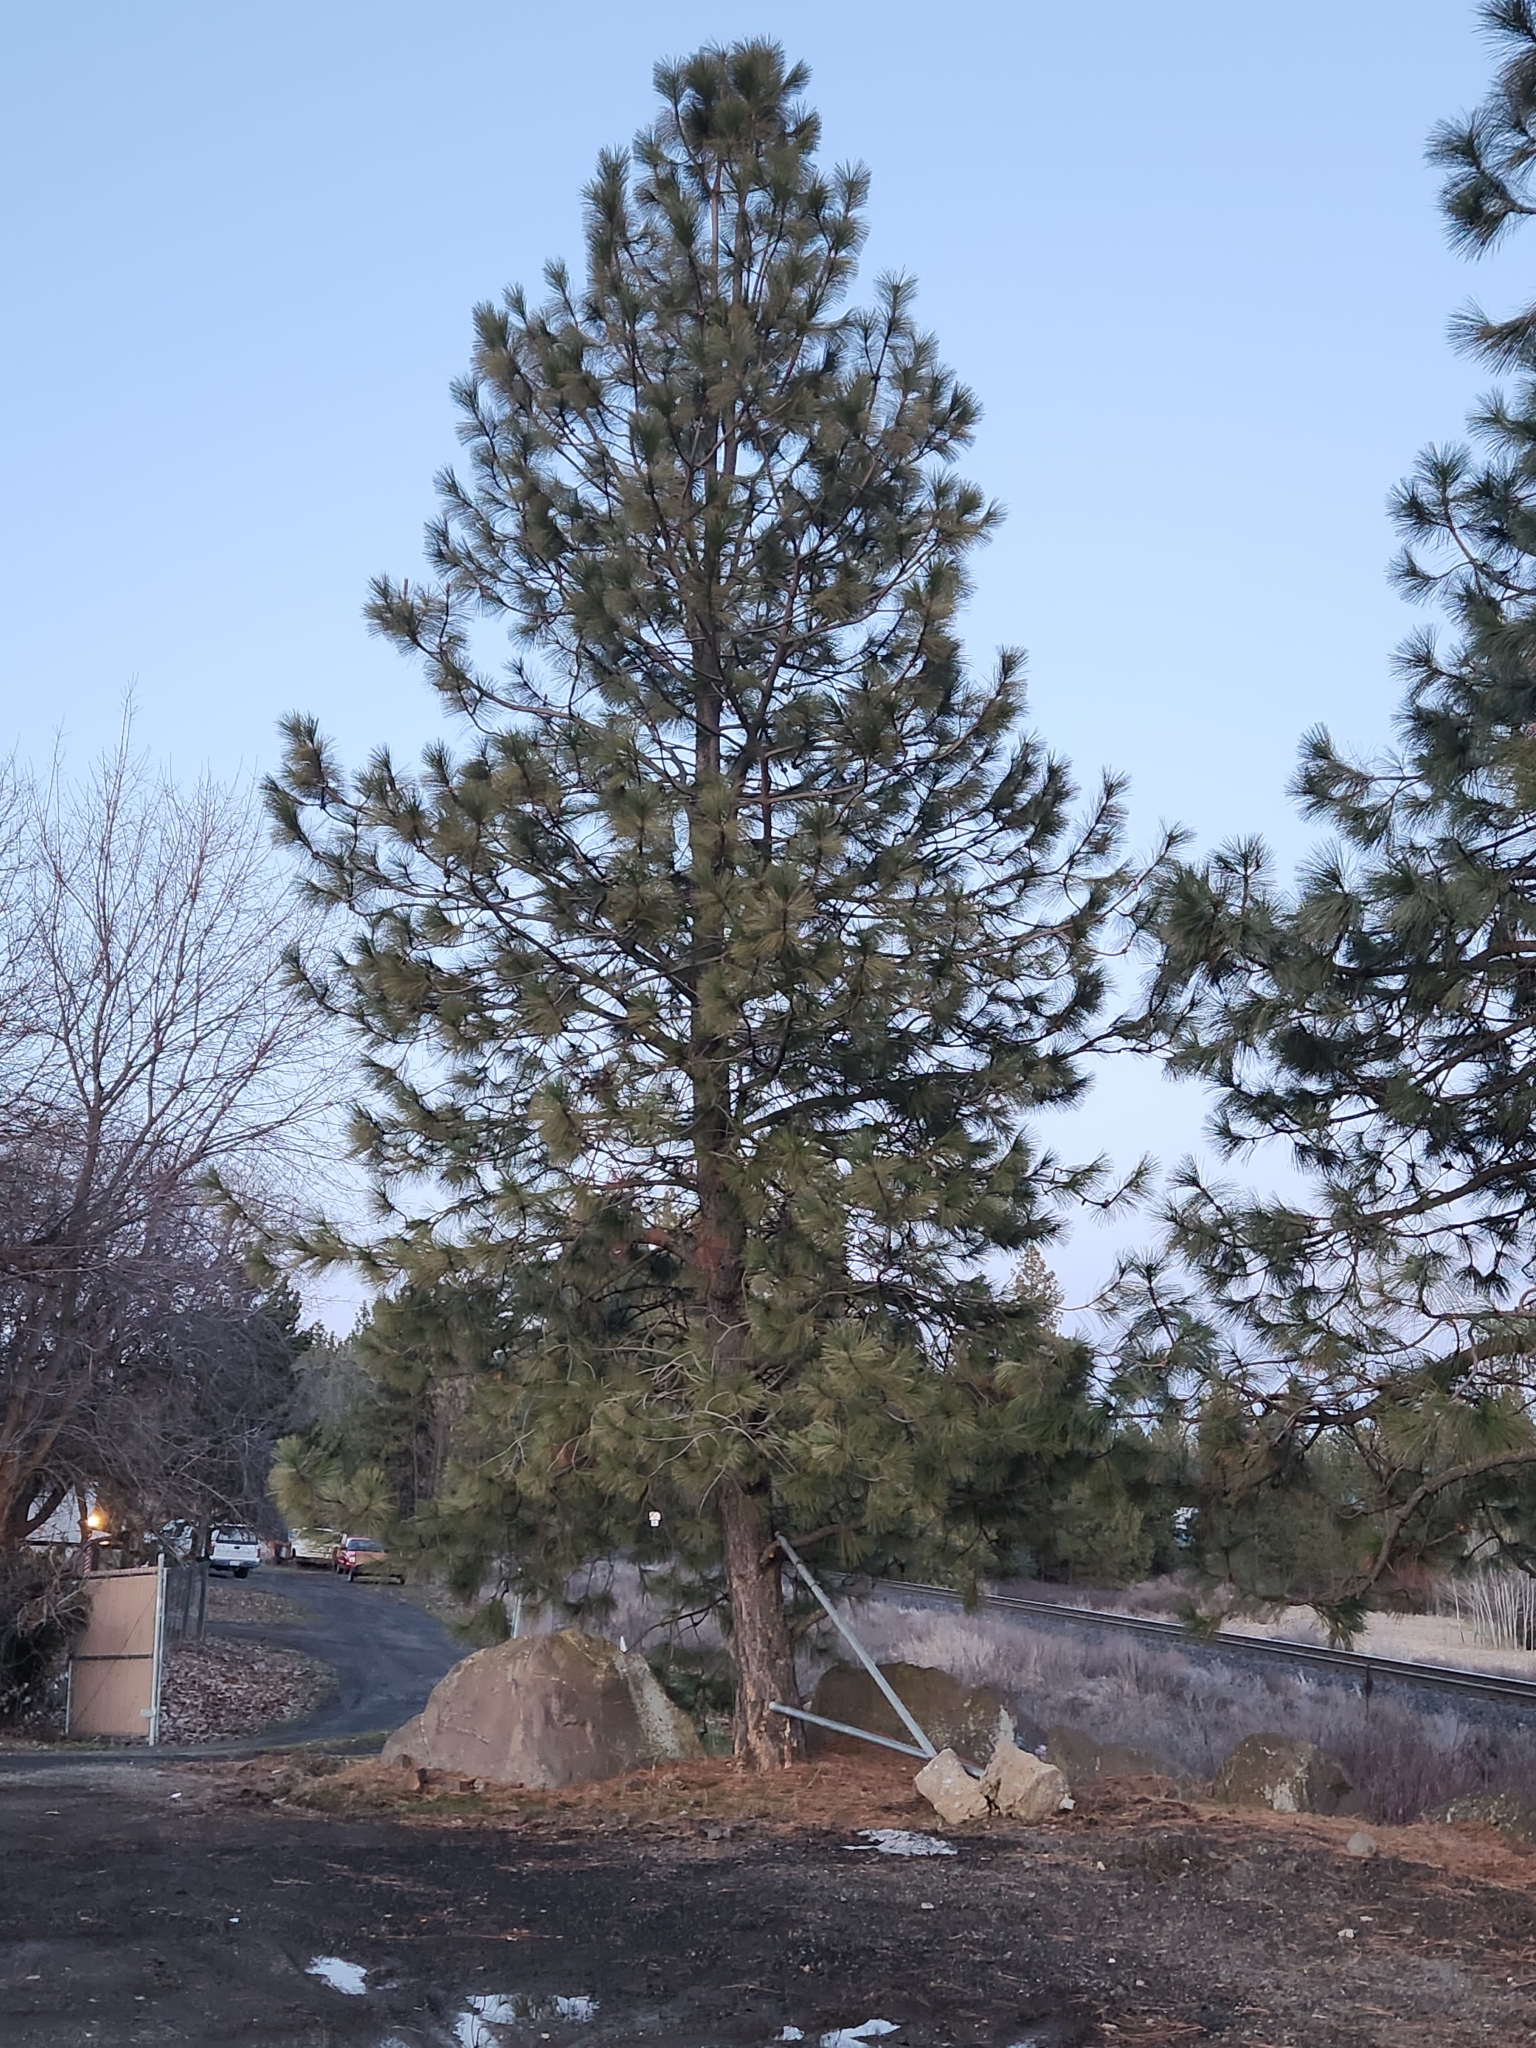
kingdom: Plantae
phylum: Tracheophyta
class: Pinopsida
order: Pinales
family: Pinaceae
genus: Pinus
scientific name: Pinus ponderosa
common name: Western yellow-pine
